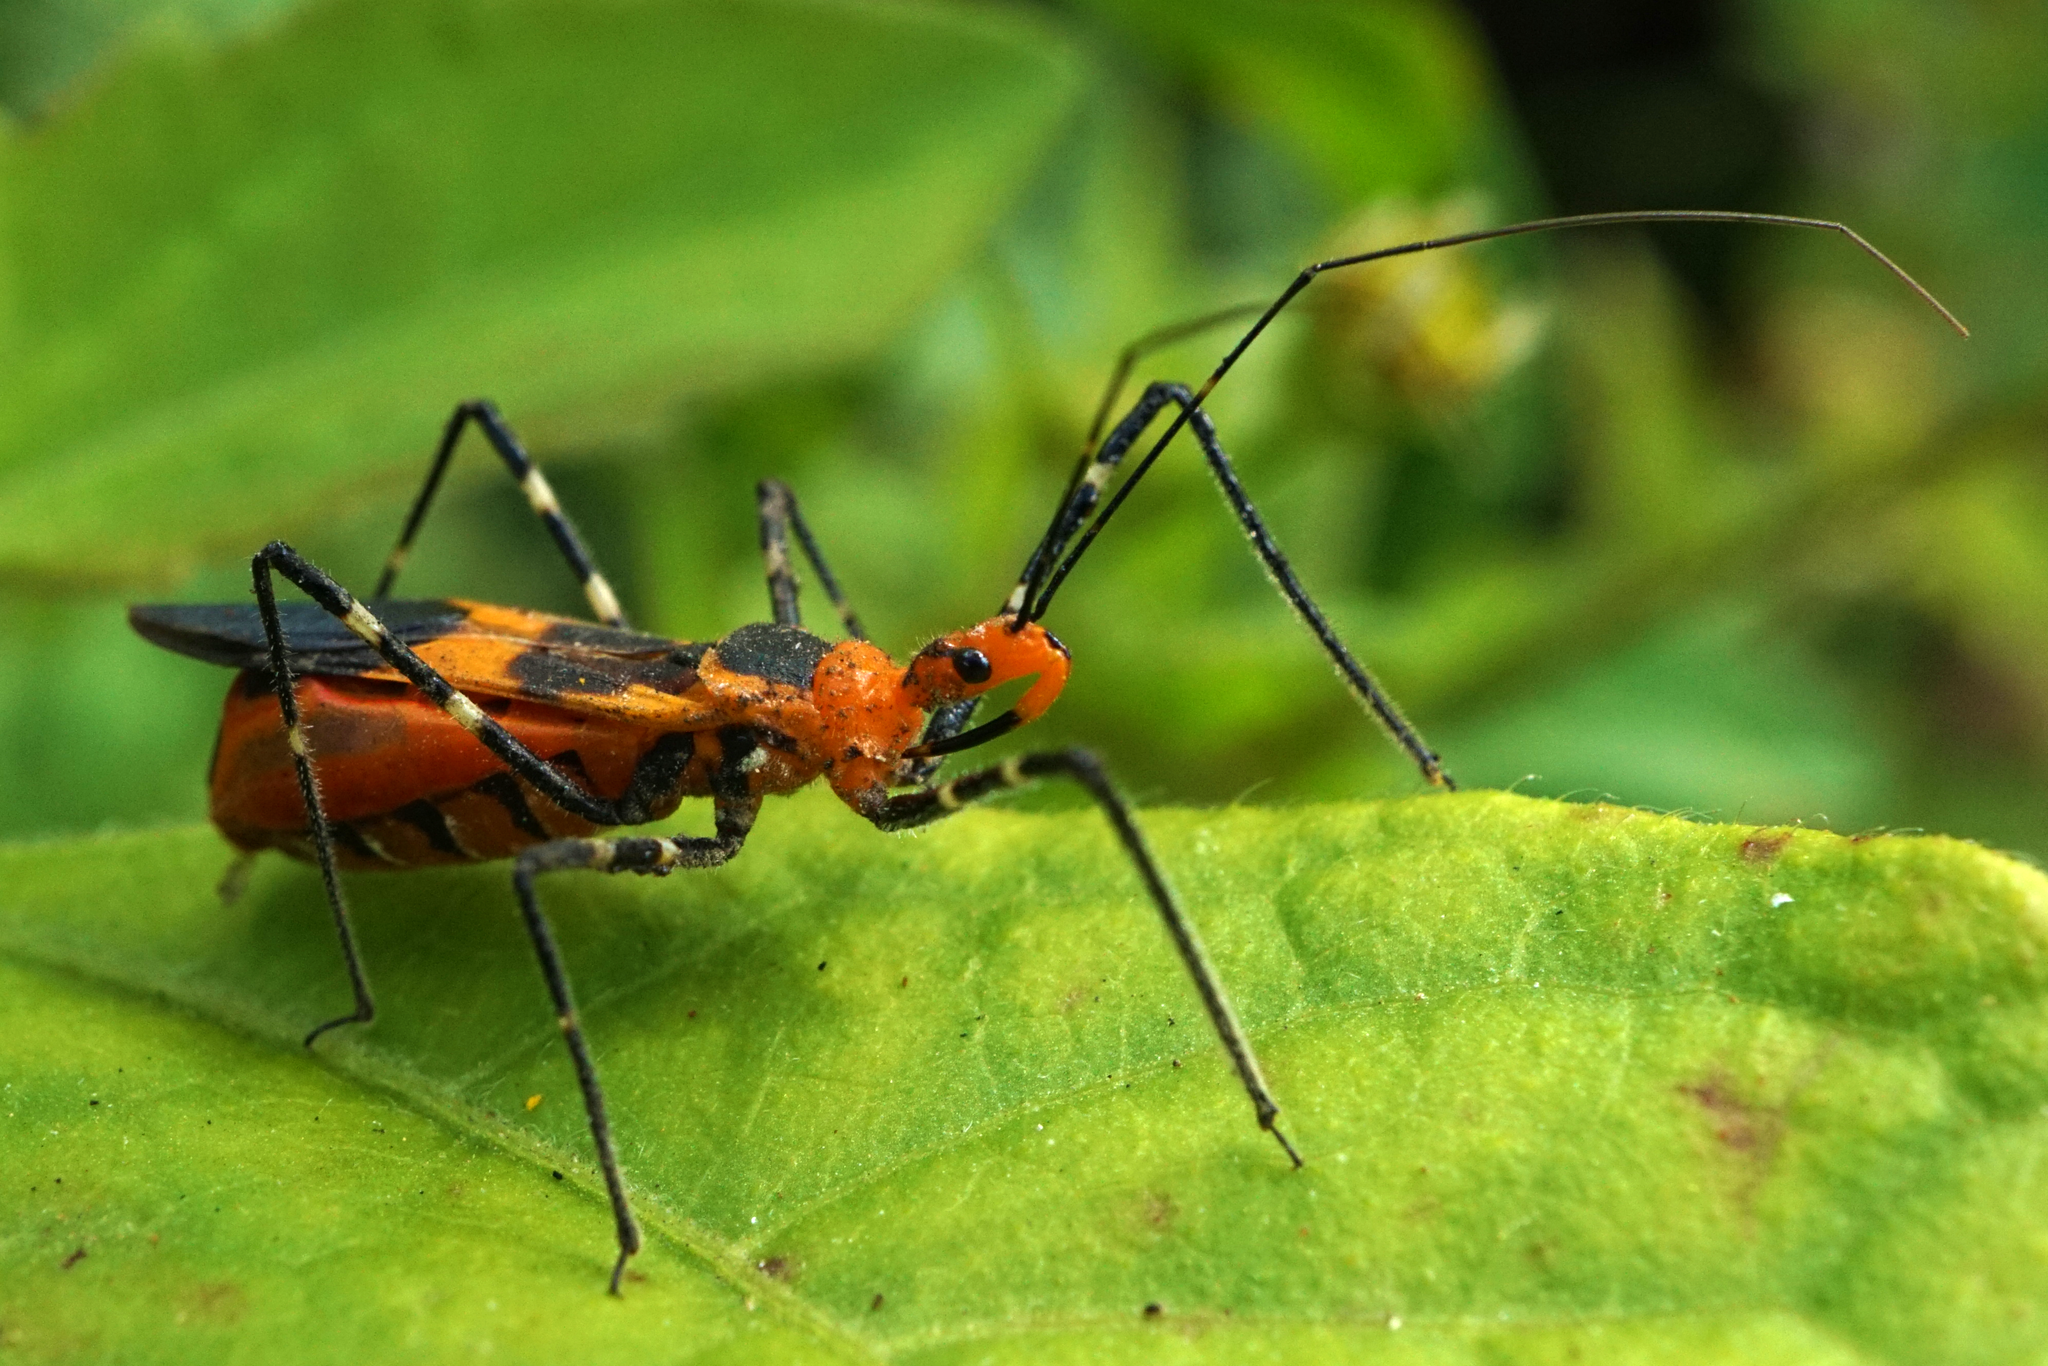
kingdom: Animalia
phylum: Arthropoda
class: Insecta
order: Hemiptera
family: Reduviidae
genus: Zelus
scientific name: Zelus longipes
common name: Milkweed assassin bug
